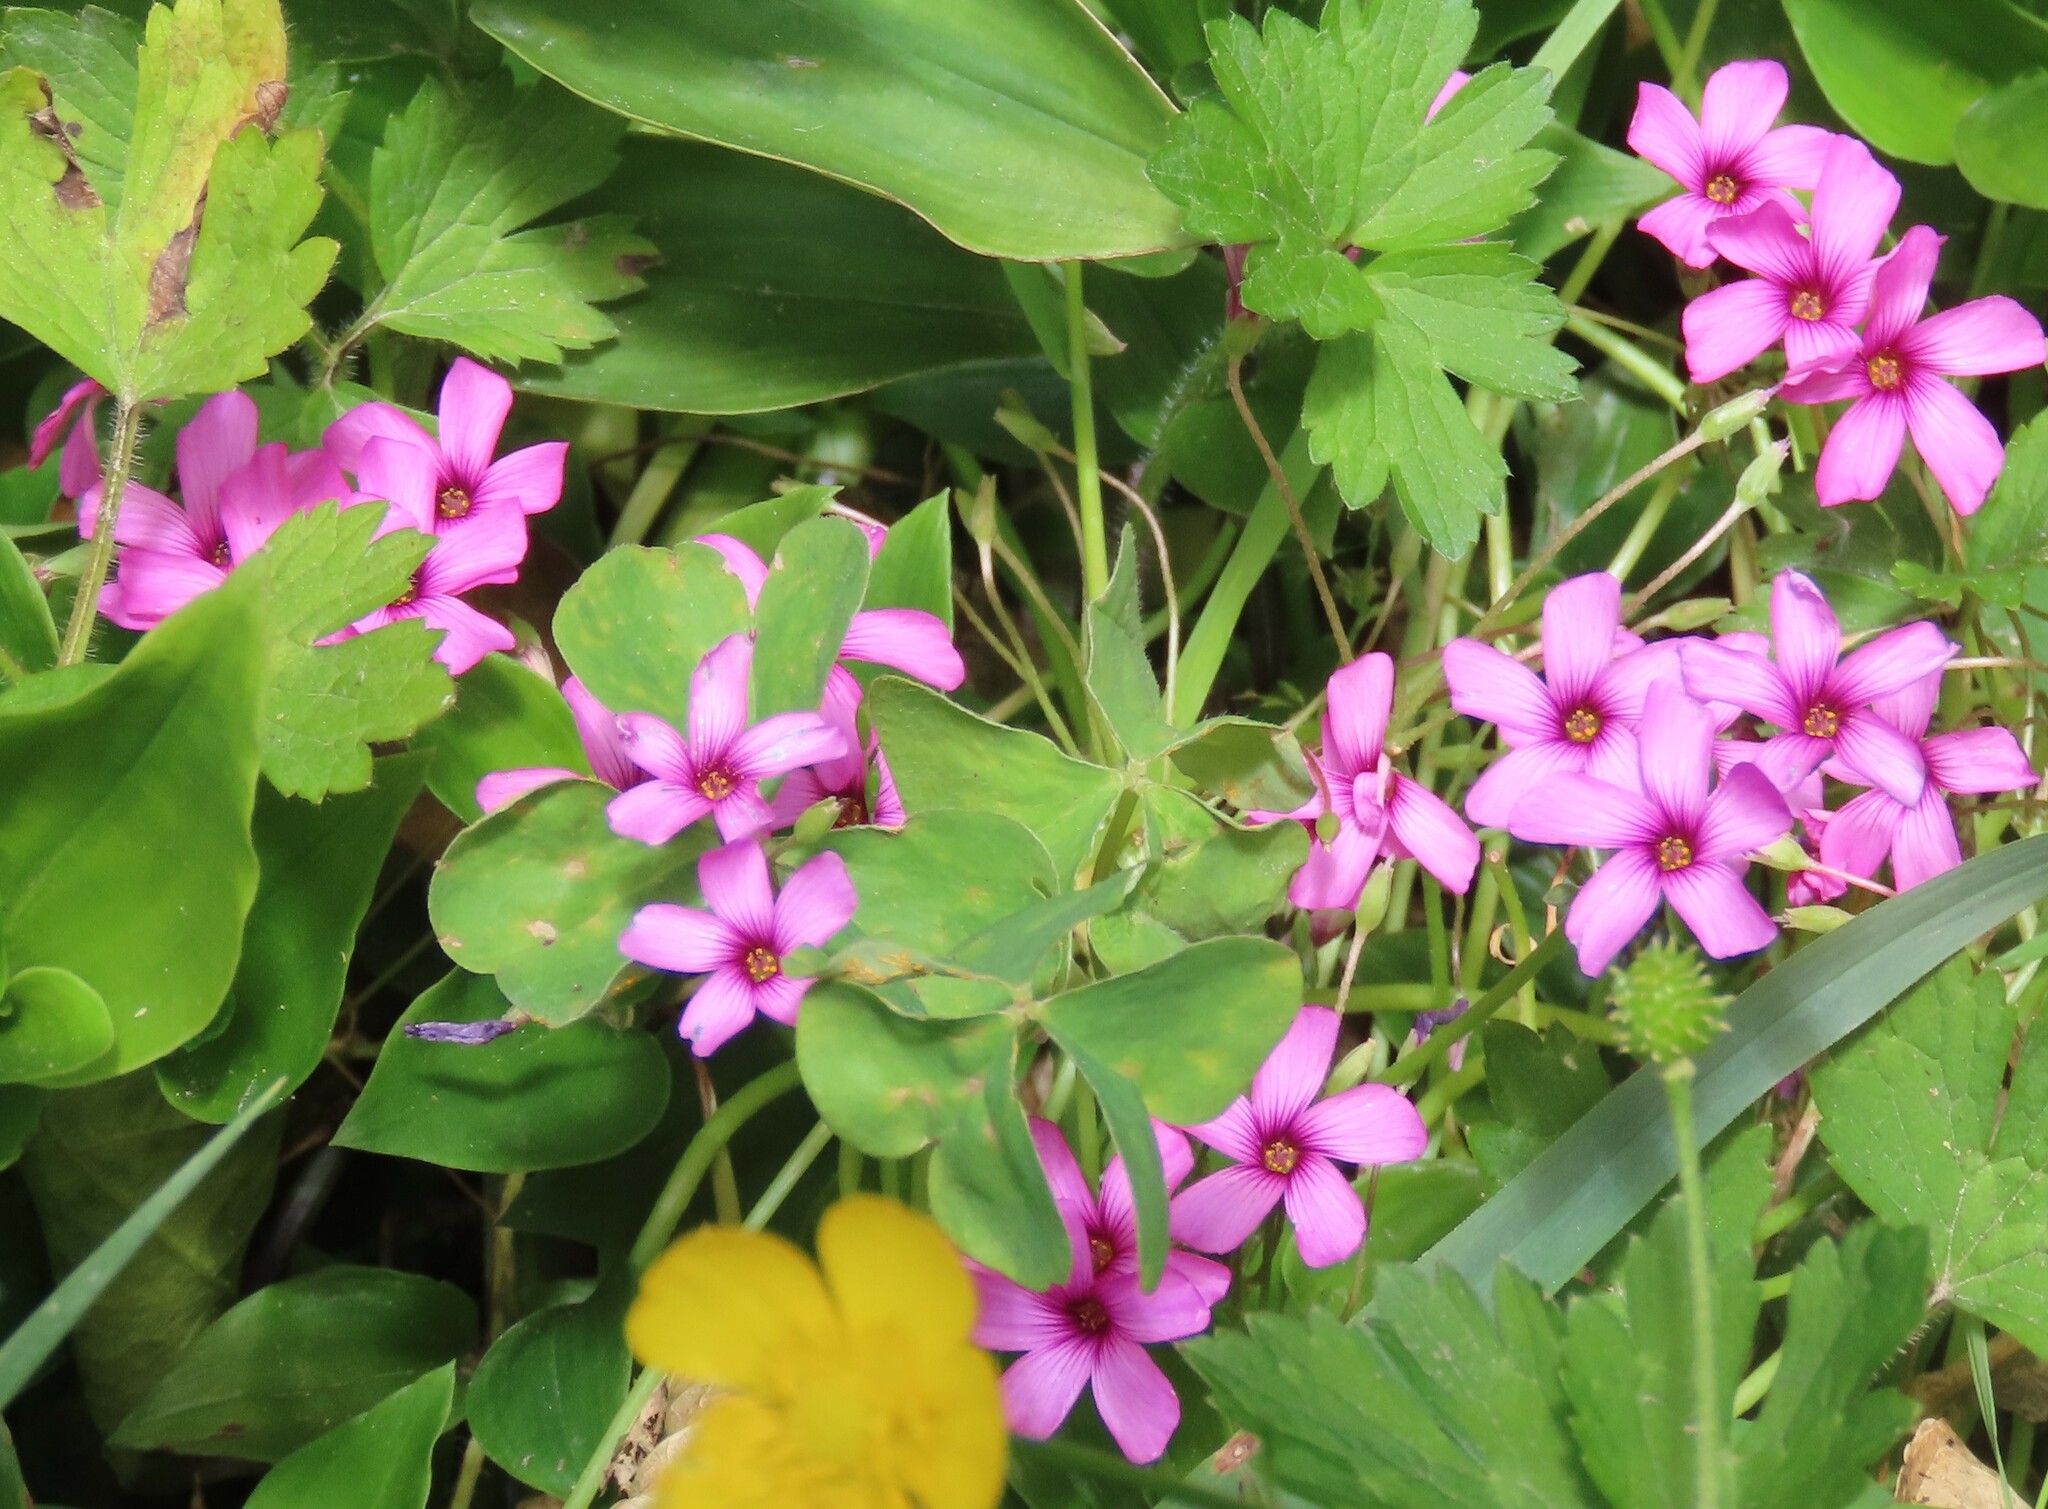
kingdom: Plantae
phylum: Tracheophyta
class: Magnoliopsida
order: Oxalidales
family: Oxalidaceae
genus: Oxalis
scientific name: Oxalis articulata
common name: Pink-sorrel
